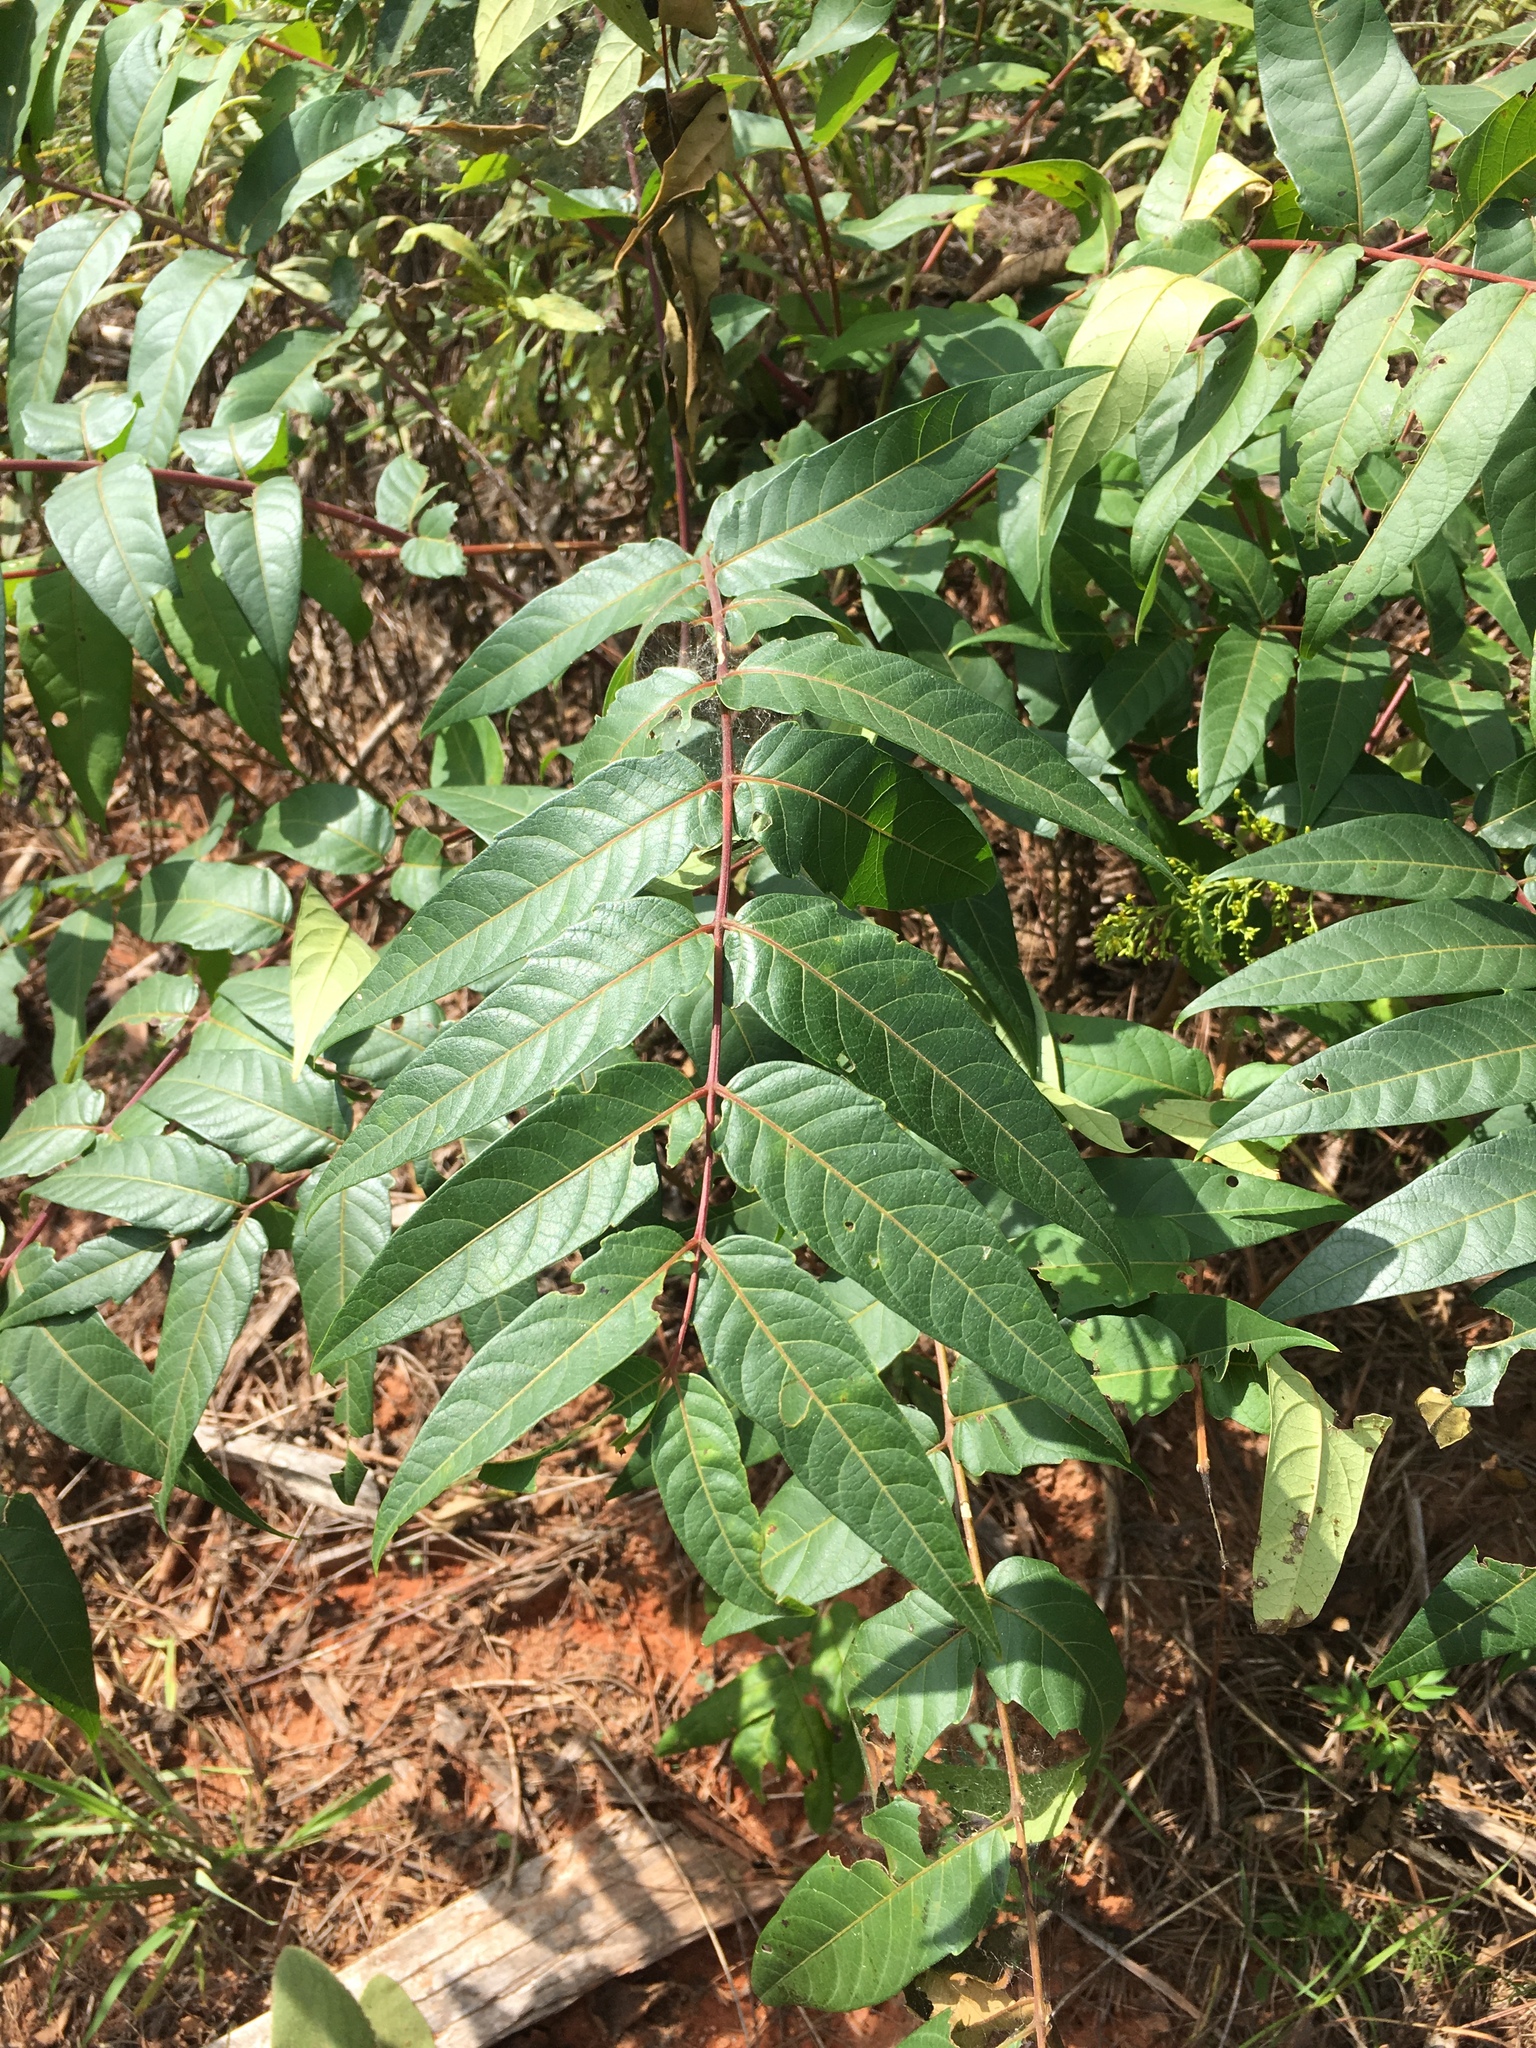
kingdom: Plantae
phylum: Tracheophyta
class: Magnoliopsida
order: Sapindales
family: Simaroubaceae
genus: Ailanthus
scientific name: Ailanthus altissima
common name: Tree-of-heaven
